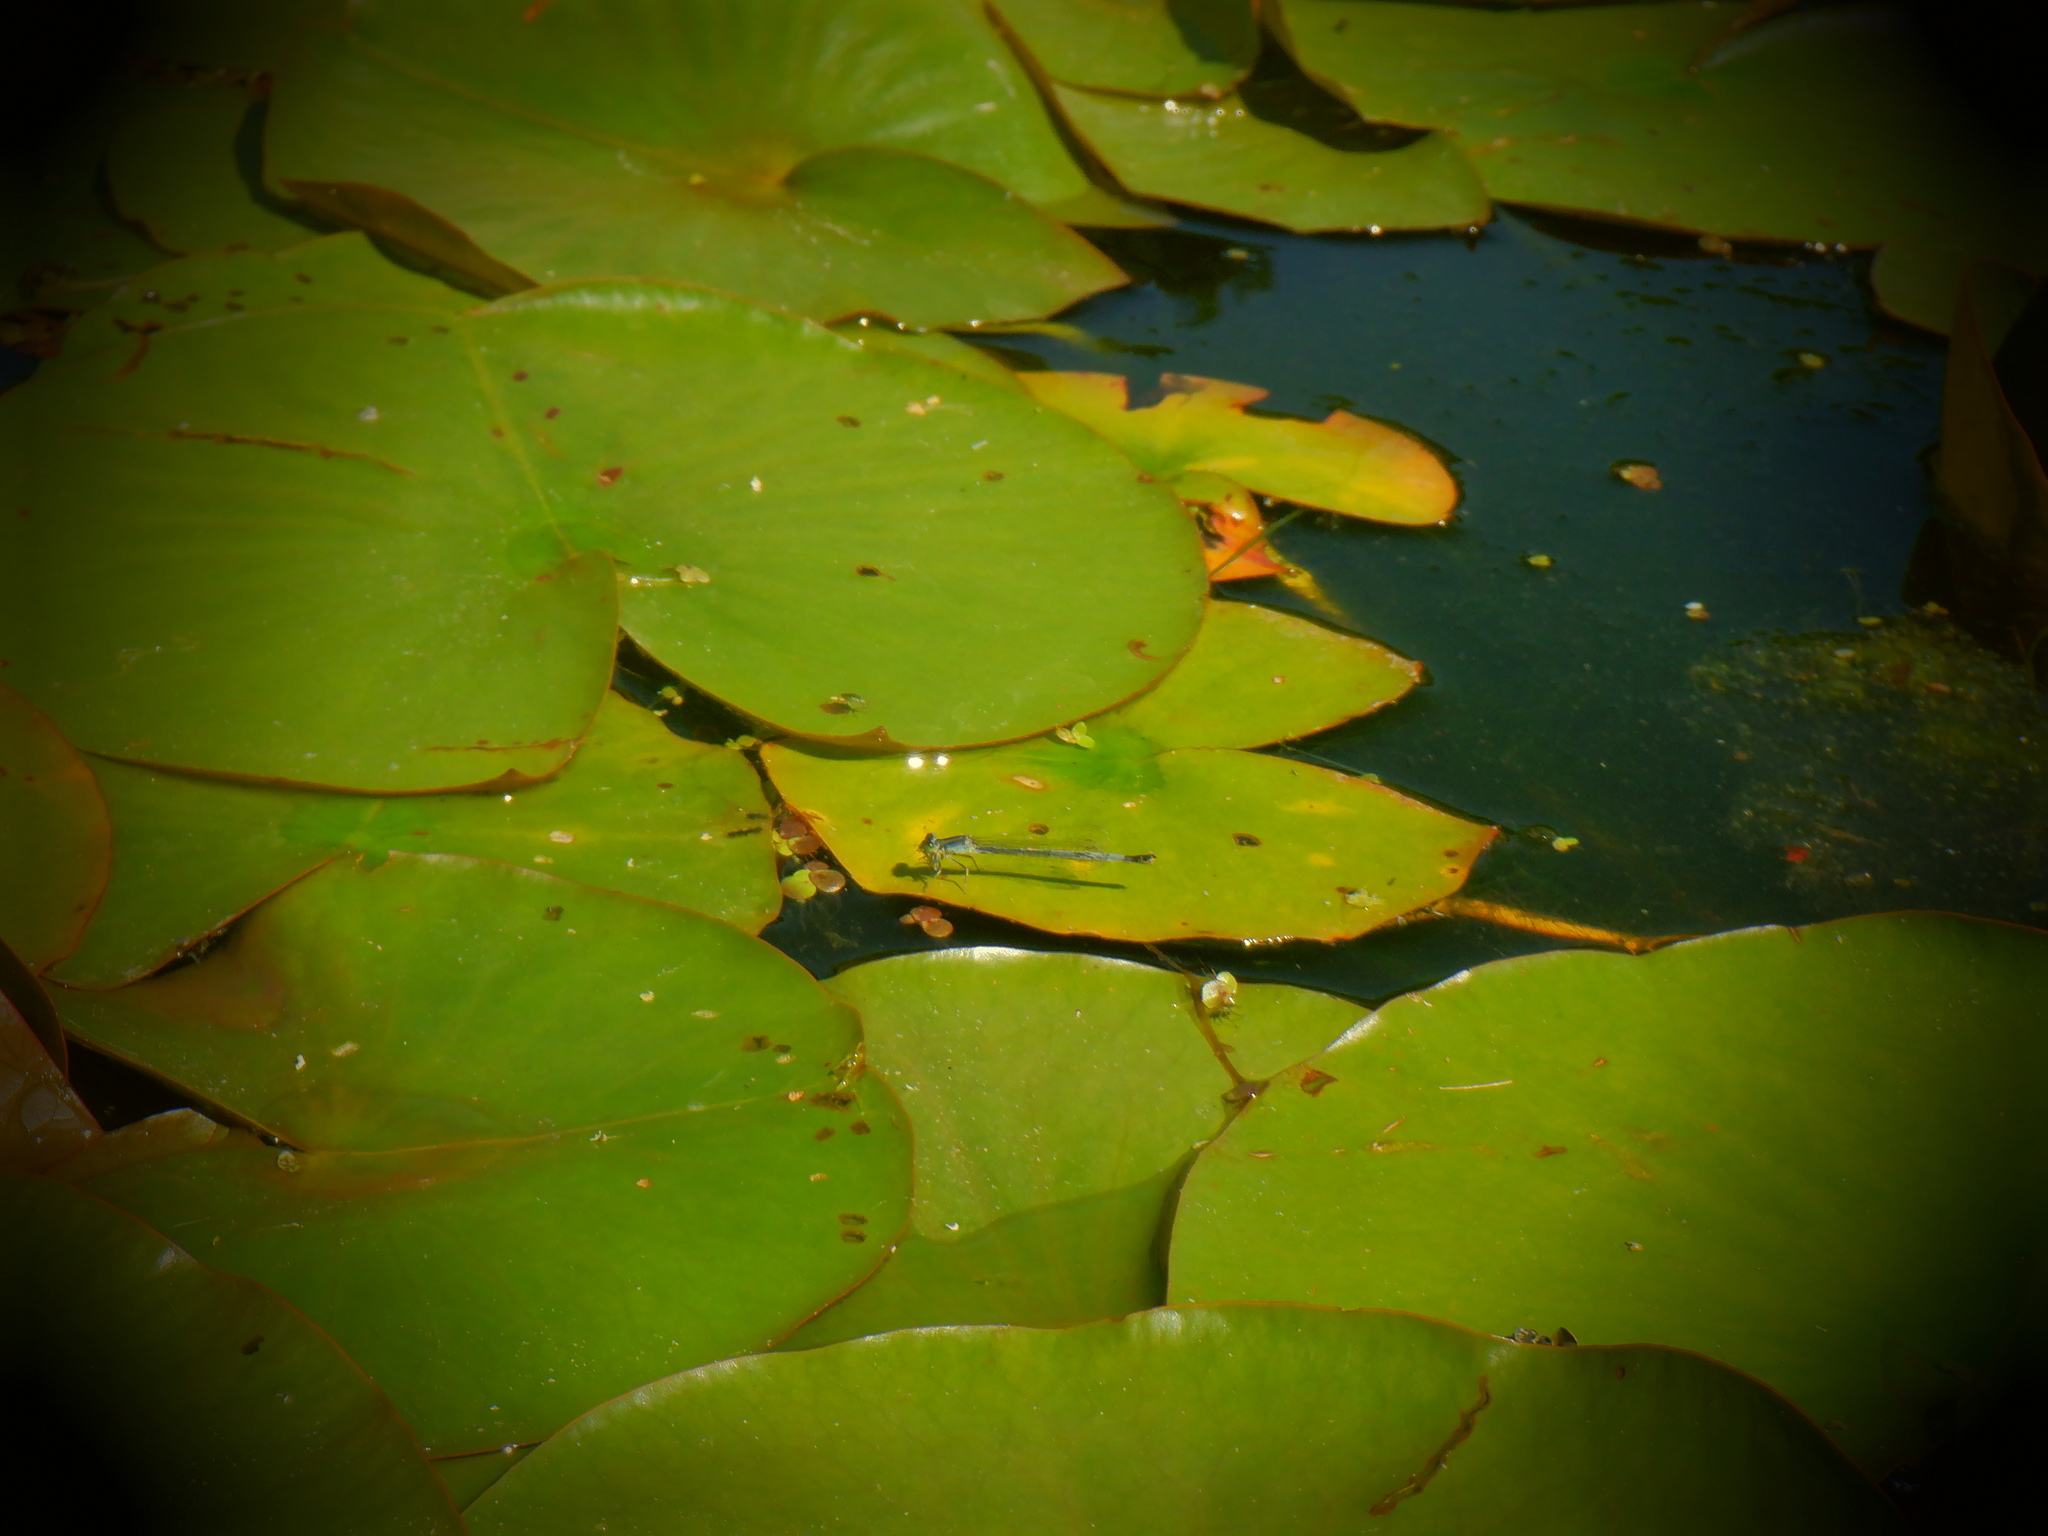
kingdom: Animalia
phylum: Arthropoda
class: Insecta
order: Odonata
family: Coenagrionidae
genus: Ischnura
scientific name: Ischnura verticalis
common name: Eastern forktail
